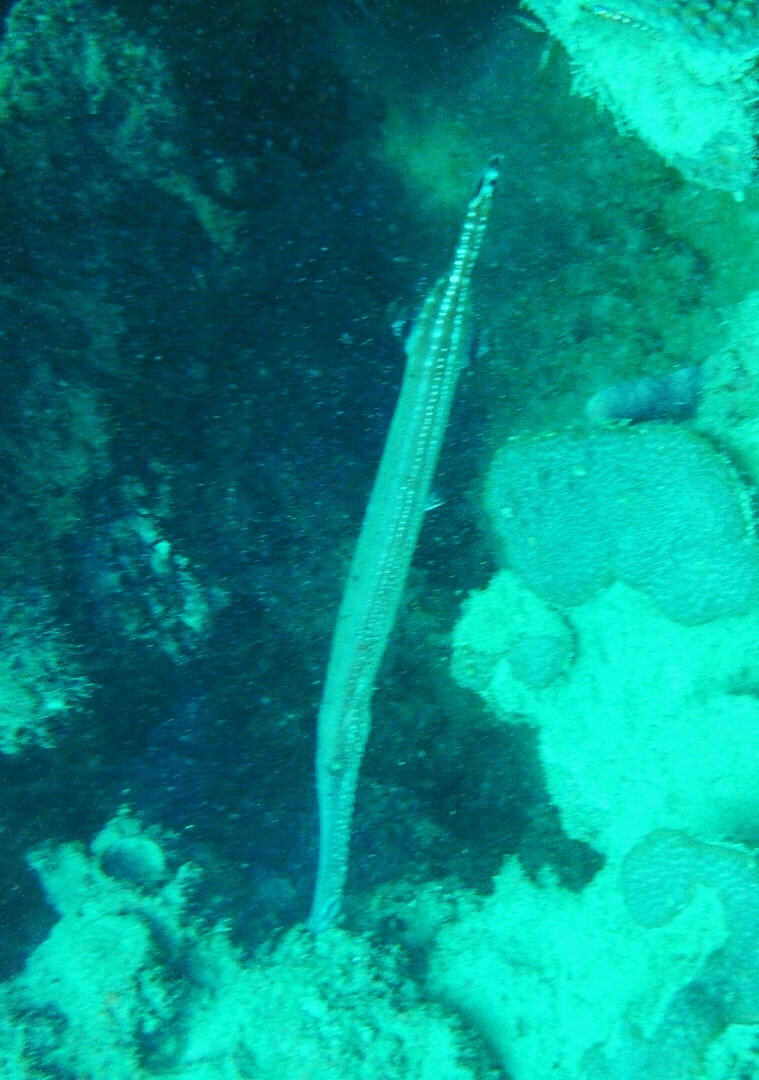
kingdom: Animalia
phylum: Chordata
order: Syngnathiformes
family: Aulostomidae
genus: Aulostomus
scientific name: Aulostomus maculatus
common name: West atlantic trumpetfish
